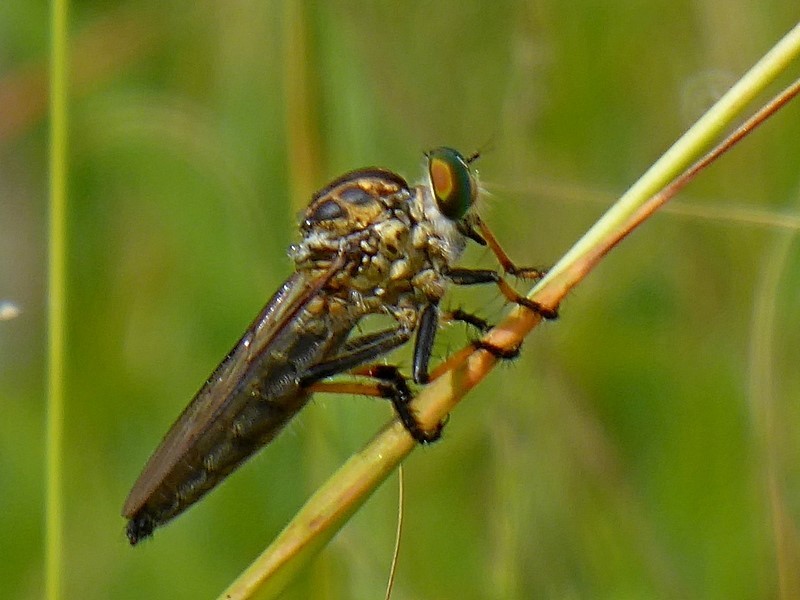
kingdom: Animalia
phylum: Arthropoda
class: Insecta
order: Diptera
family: Asilidae
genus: Ommatius
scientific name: Ommatius coeraebus
